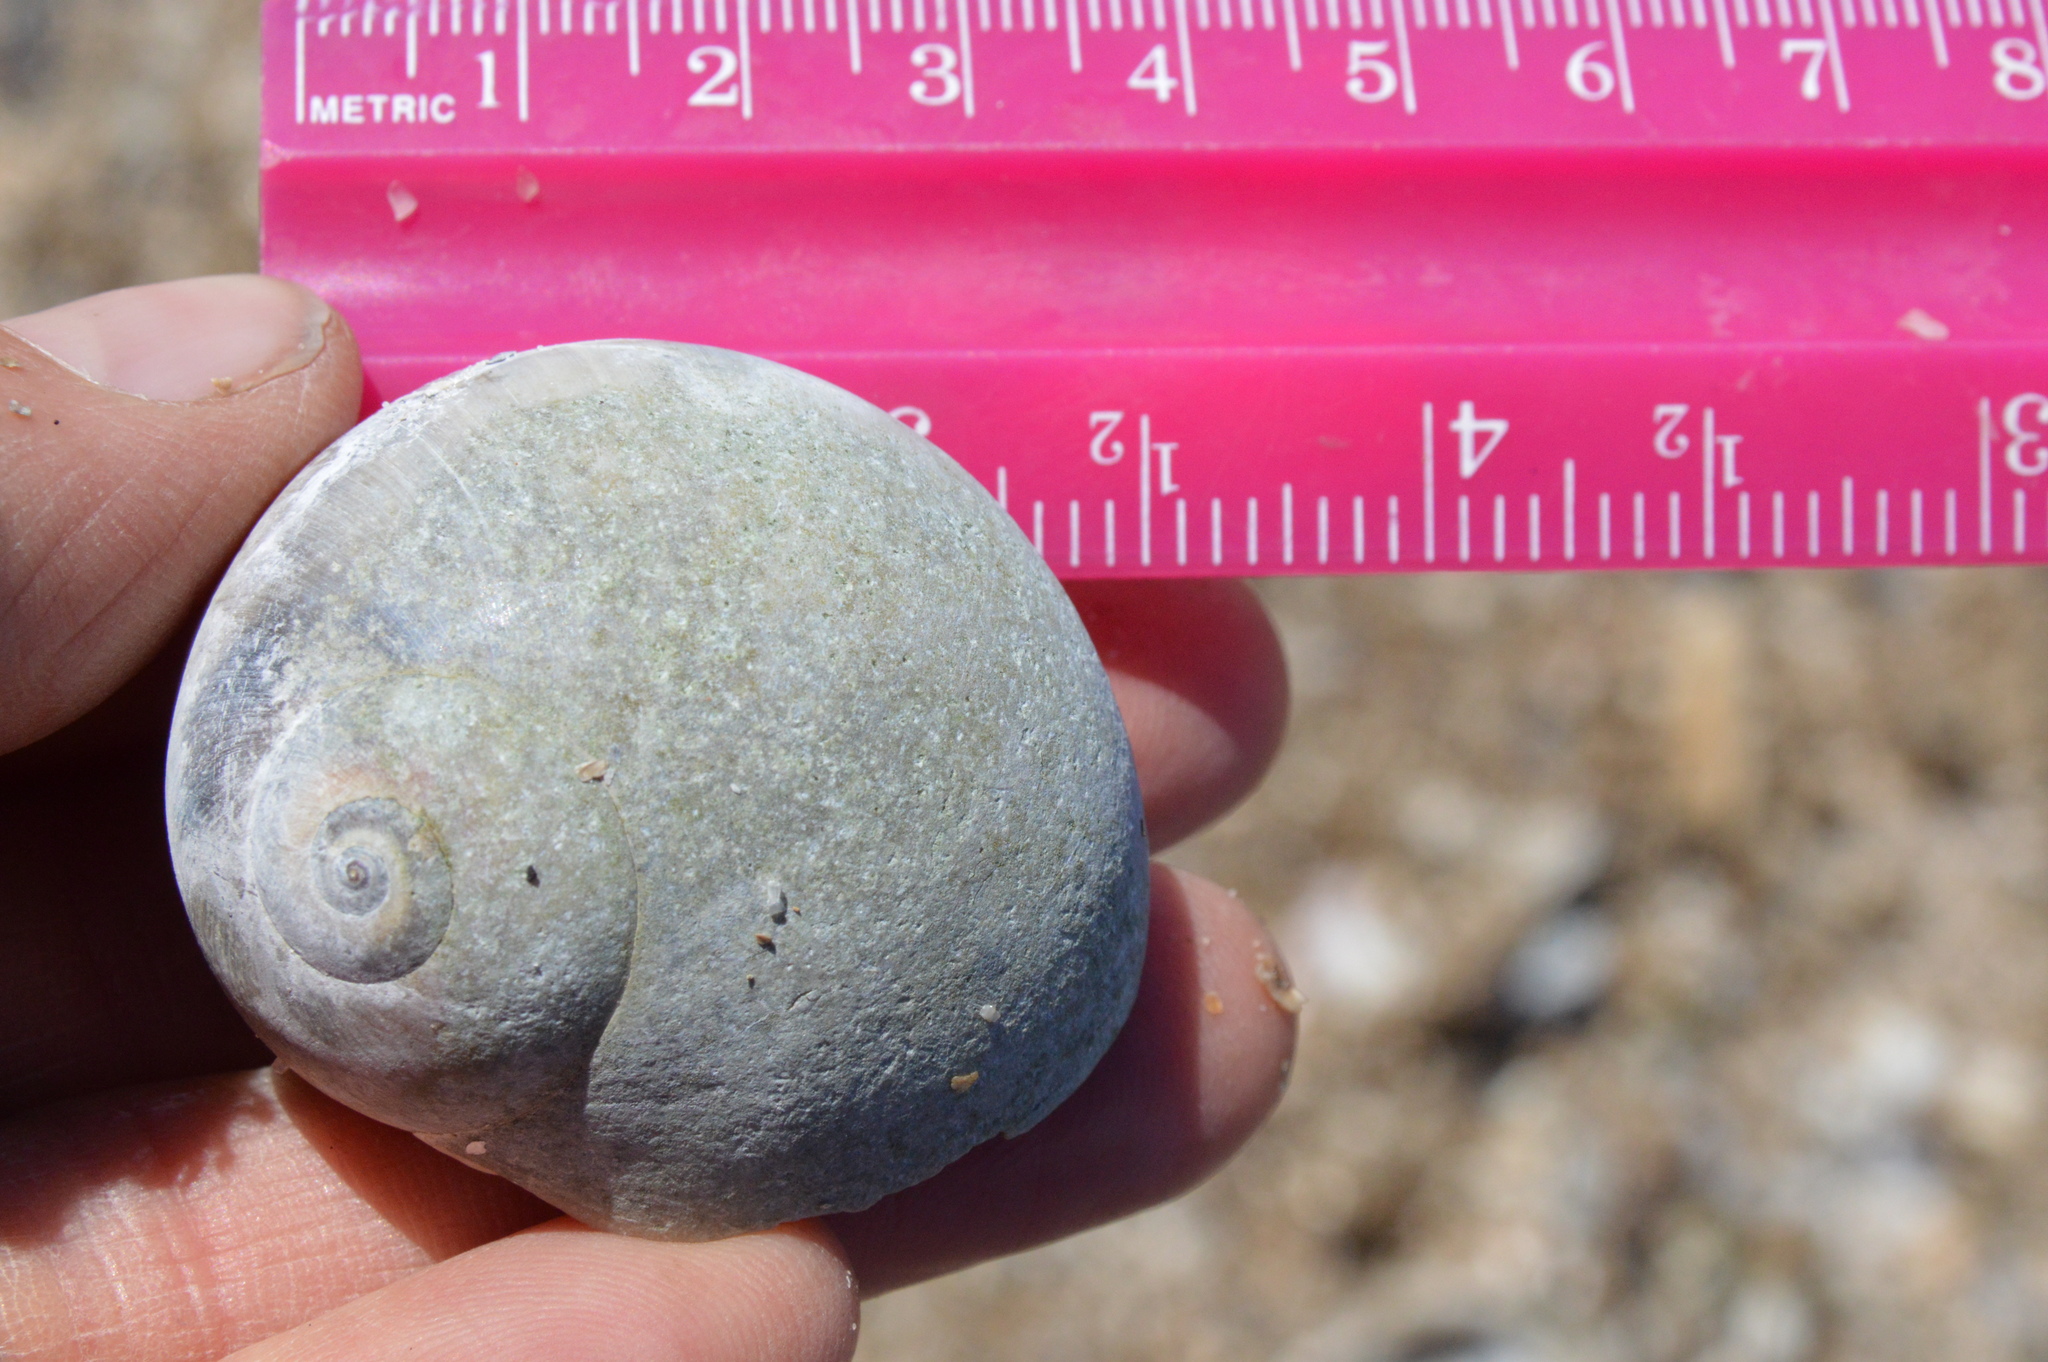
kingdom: Animalia
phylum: Mollusca
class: Gastropoda
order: Littorinimorpha
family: Naticidae
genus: Neverita
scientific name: Neverita delessertiana
